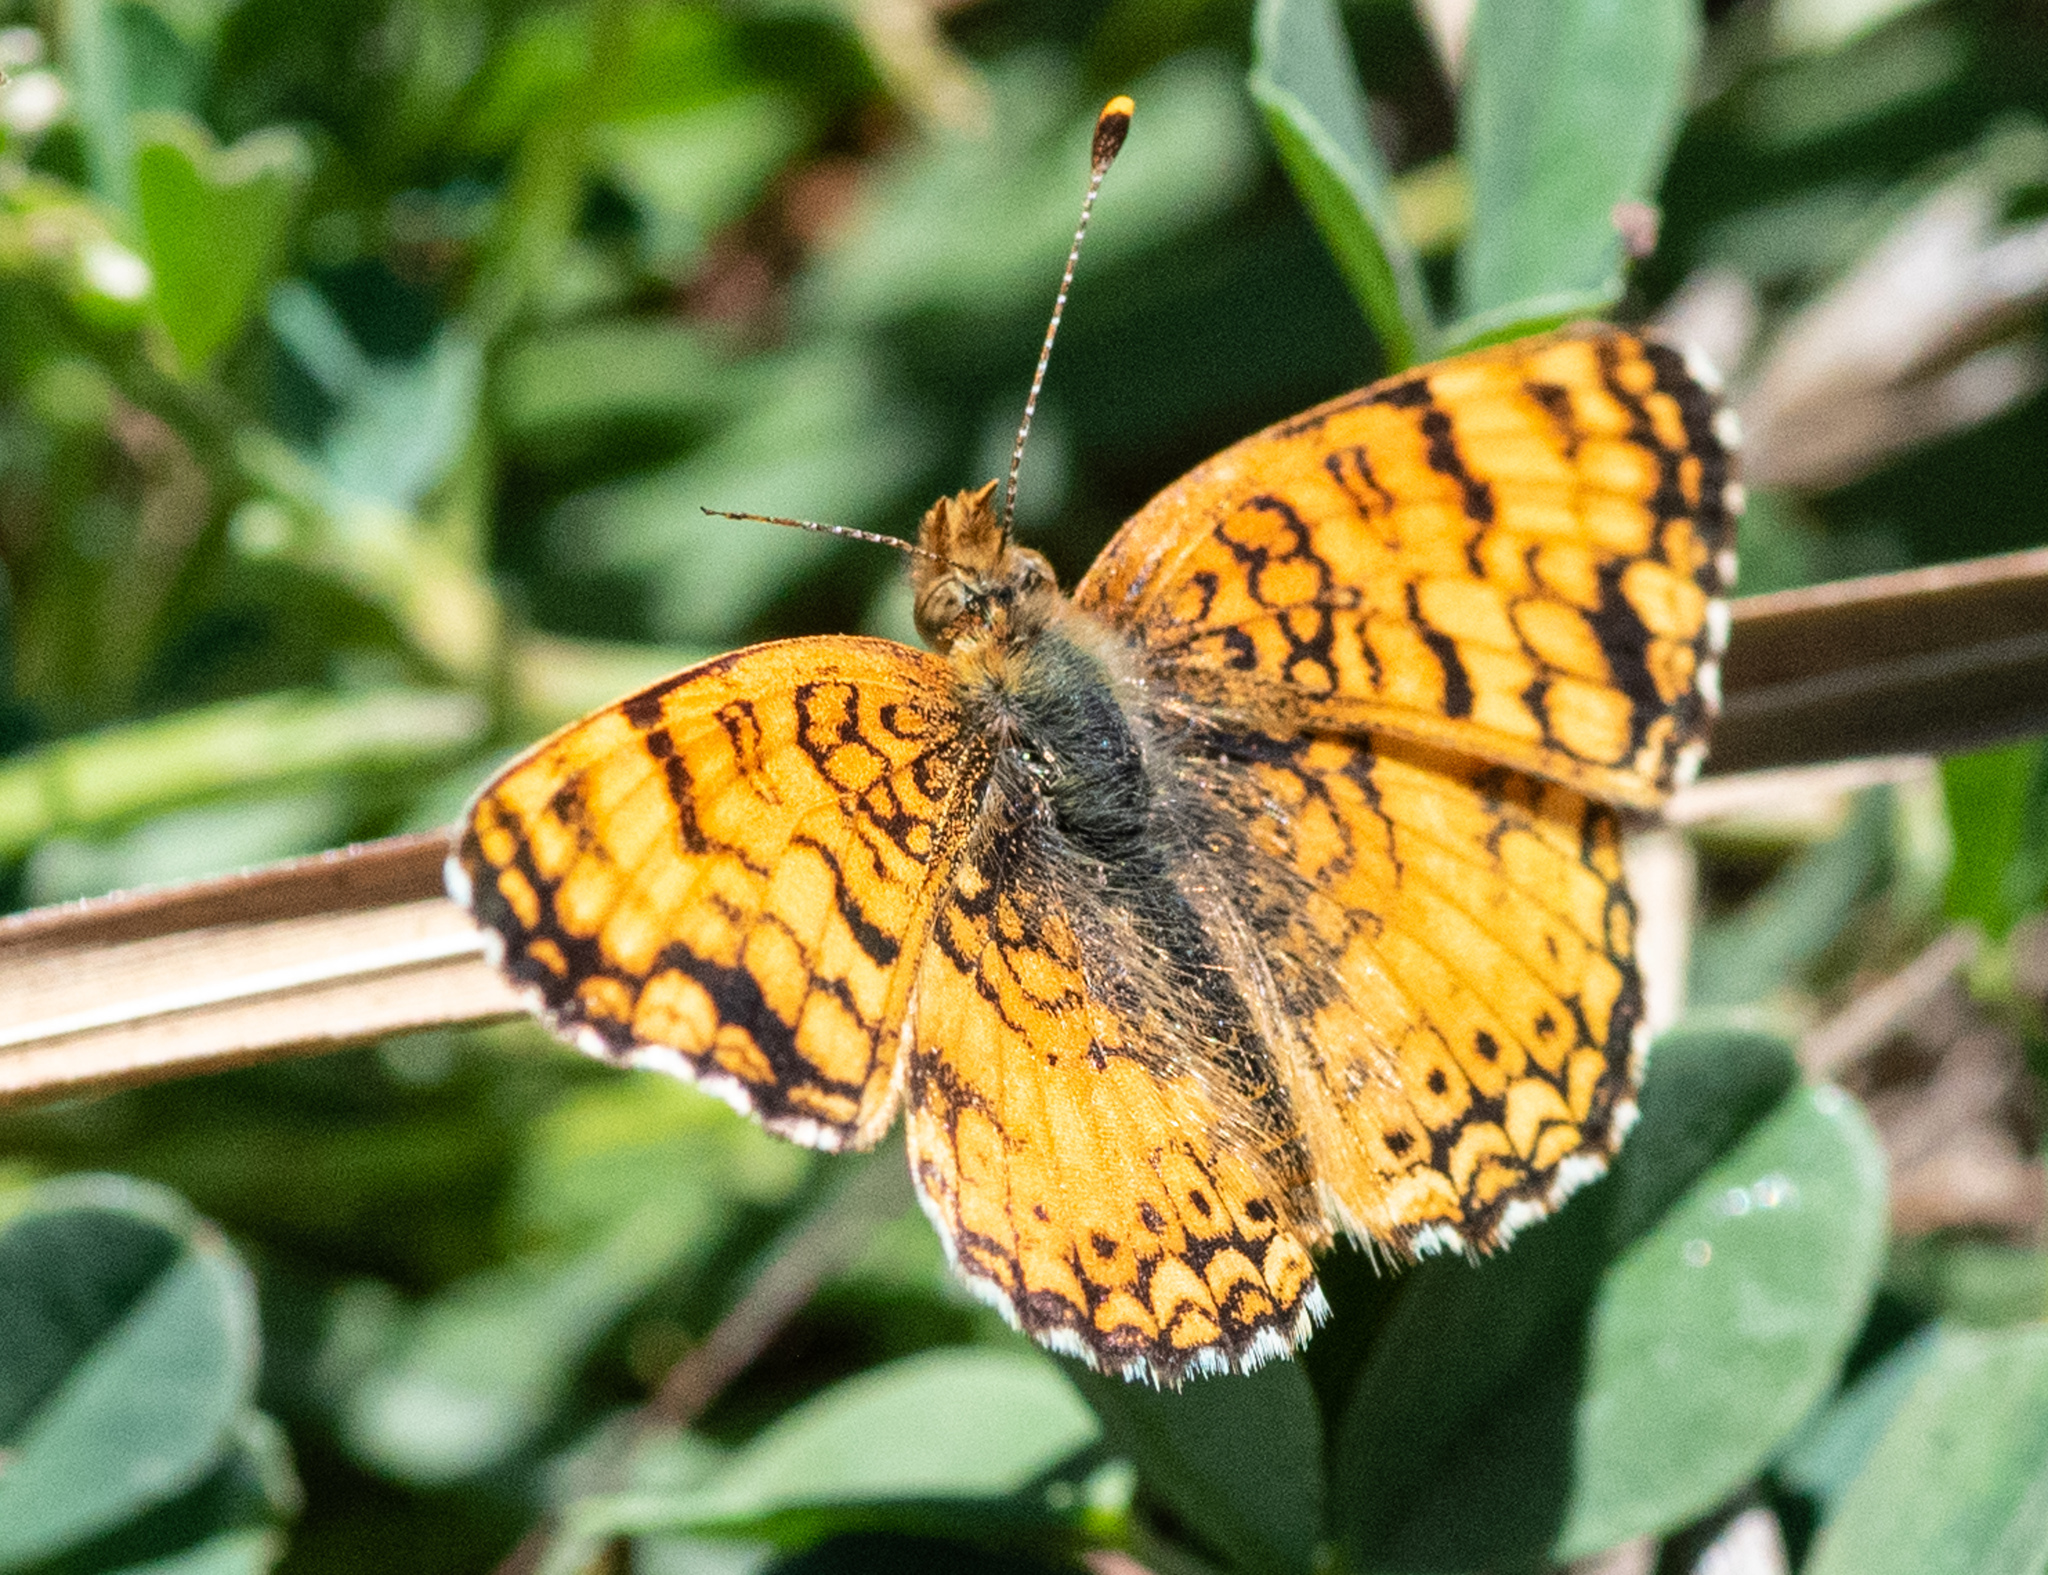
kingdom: Animalia
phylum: Arthropoda
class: Insecta
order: Lepidoptera
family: Nymphalidae
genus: Eresia
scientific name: Eresia aveyrona
